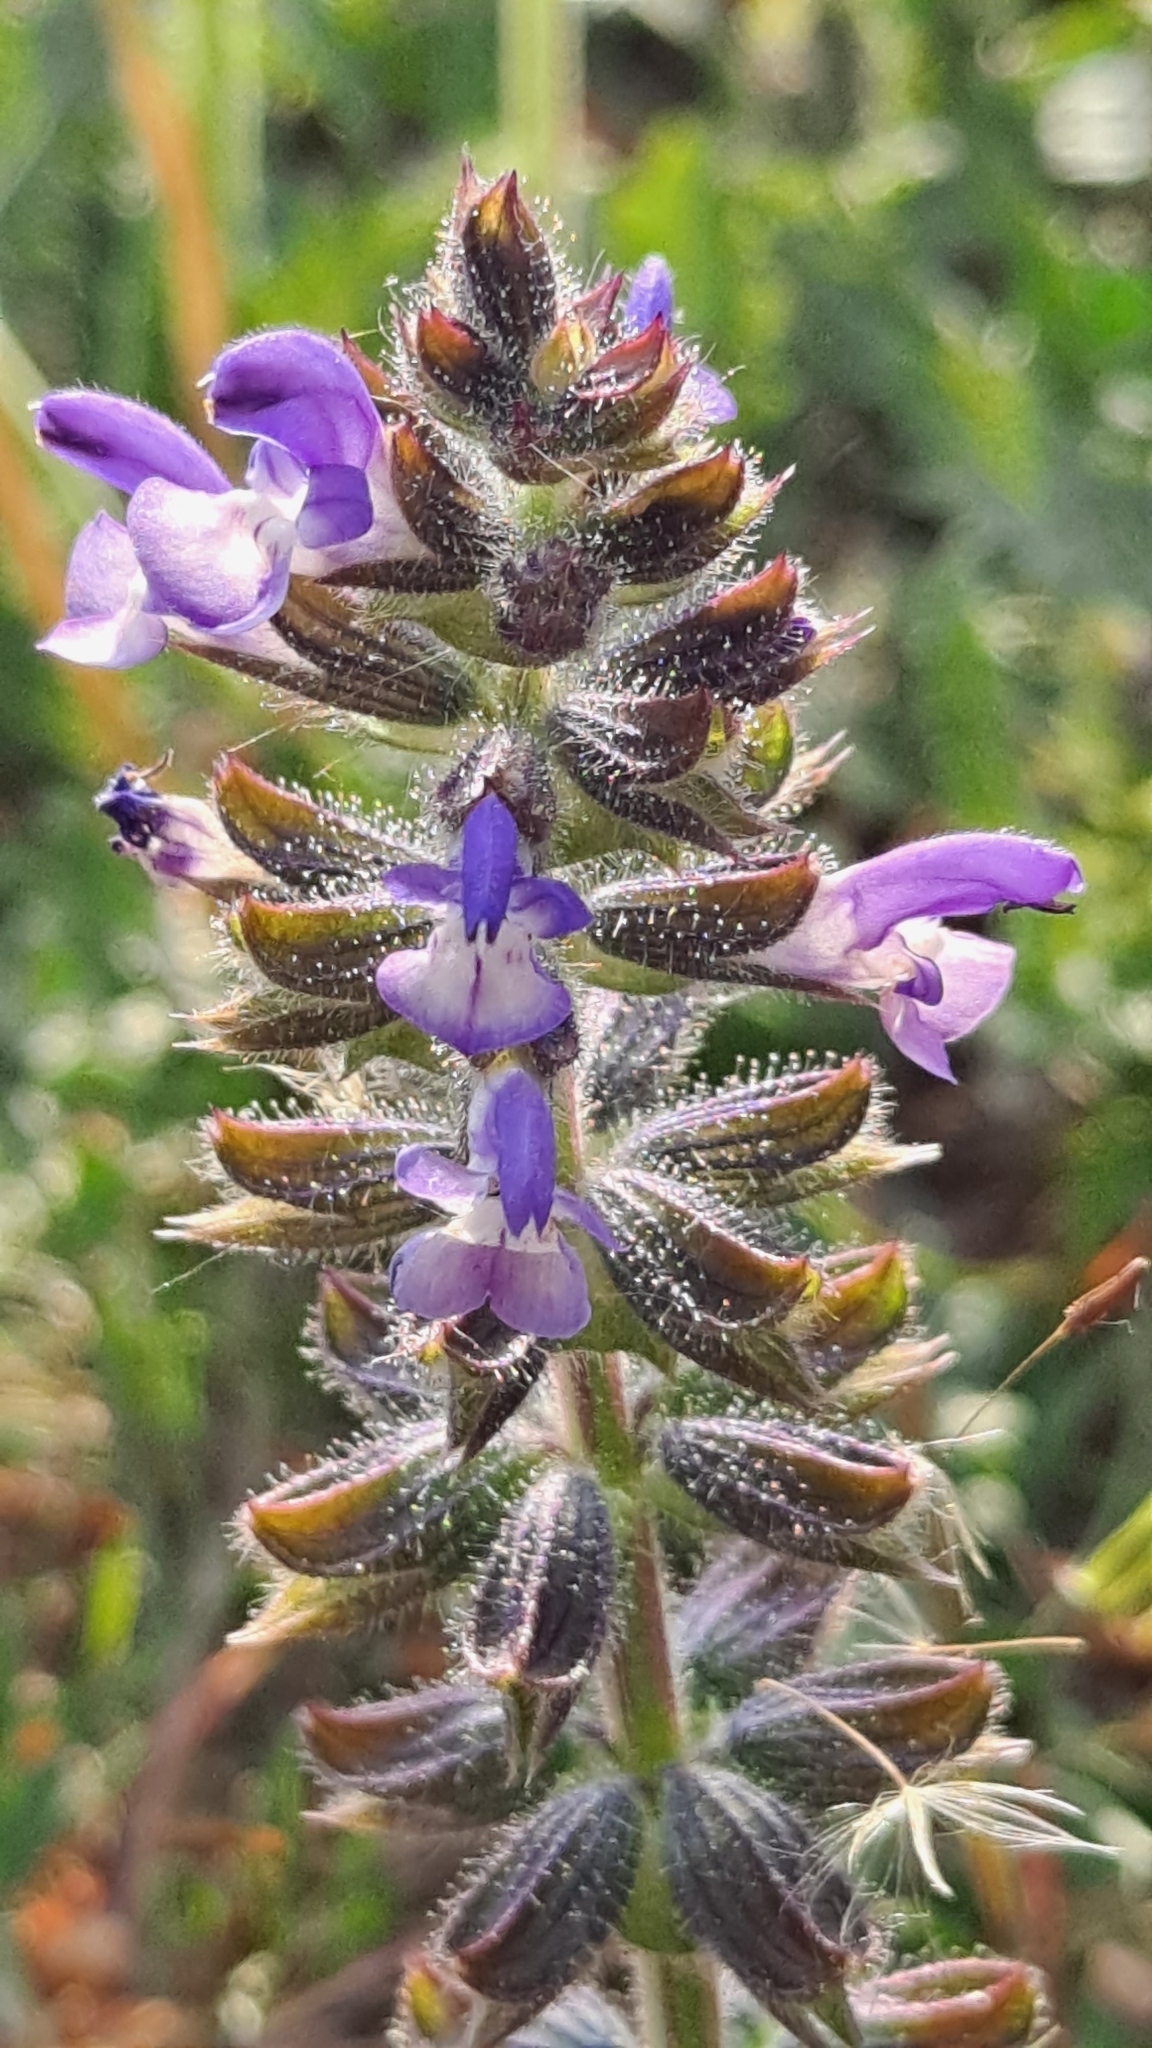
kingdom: Plantae
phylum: Tracheophyta
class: Magnoliopsida
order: Lamiales
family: Lamiaceae
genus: Salvia
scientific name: Salvia verbenaca
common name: Wild clary
